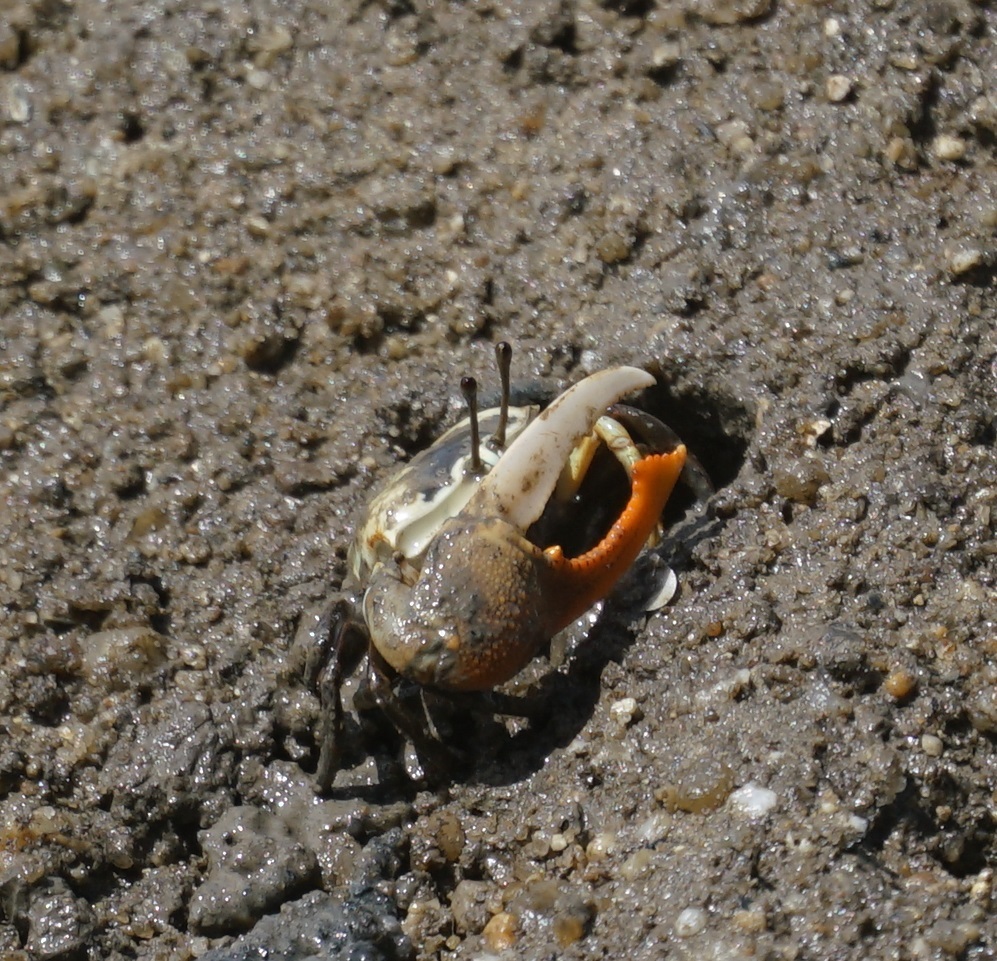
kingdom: Animalia
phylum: Arthropoda
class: Malacostraca
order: Decapoda
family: Ocypodidae
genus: Gelasimus
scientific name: Gelasimus vomeris
